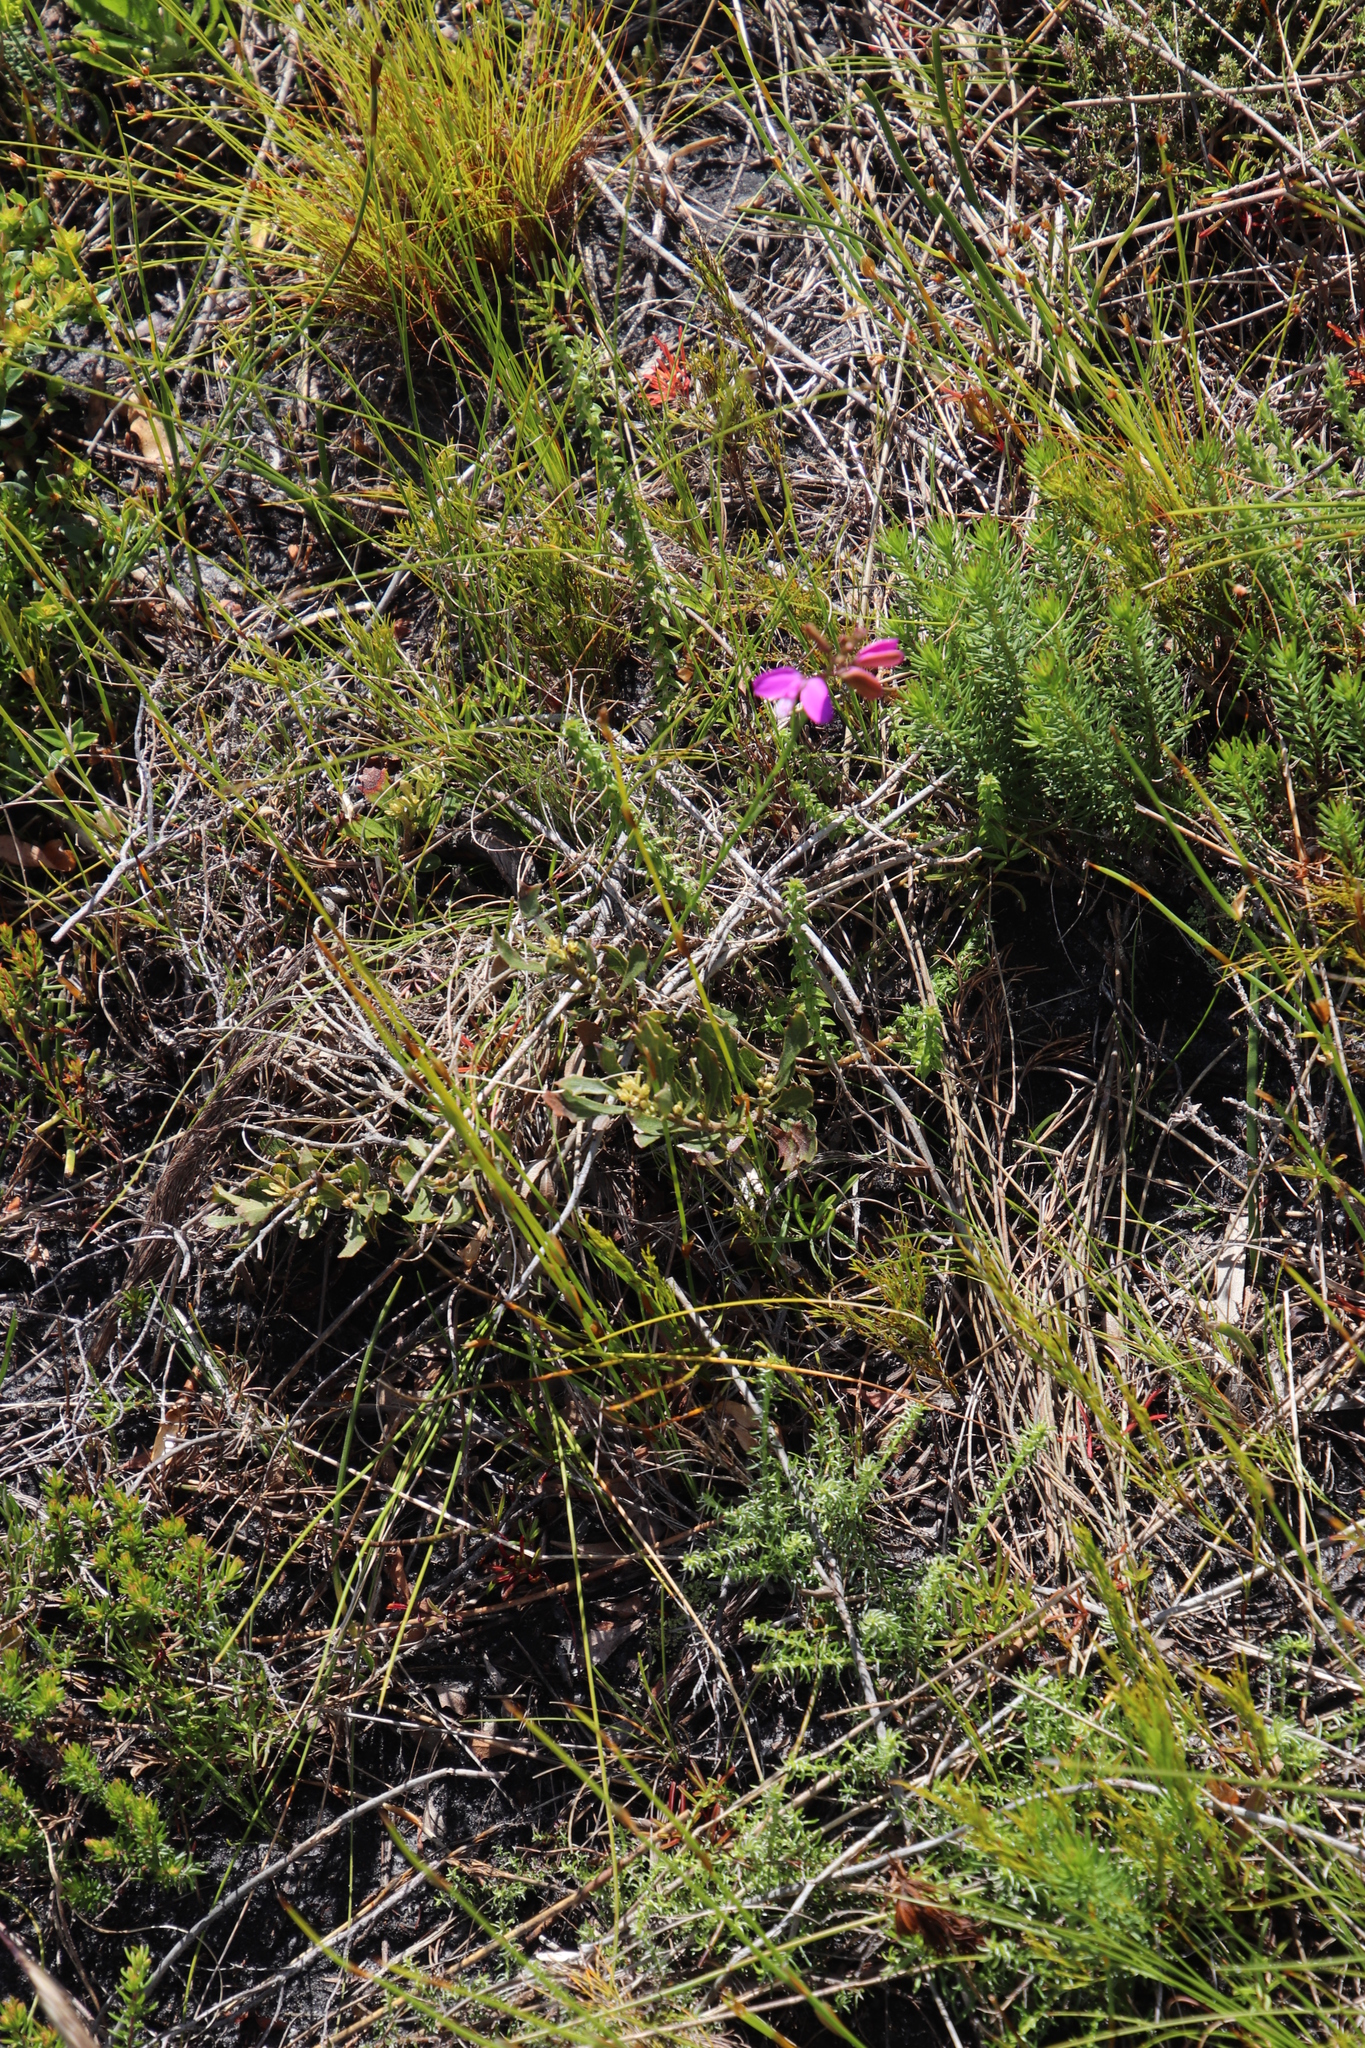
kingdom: Plantae
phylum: Tracheophyta
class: Magnoliopsida
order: Fabales
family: Polygalaceae
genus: Polygala
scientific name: Polygala garcini
